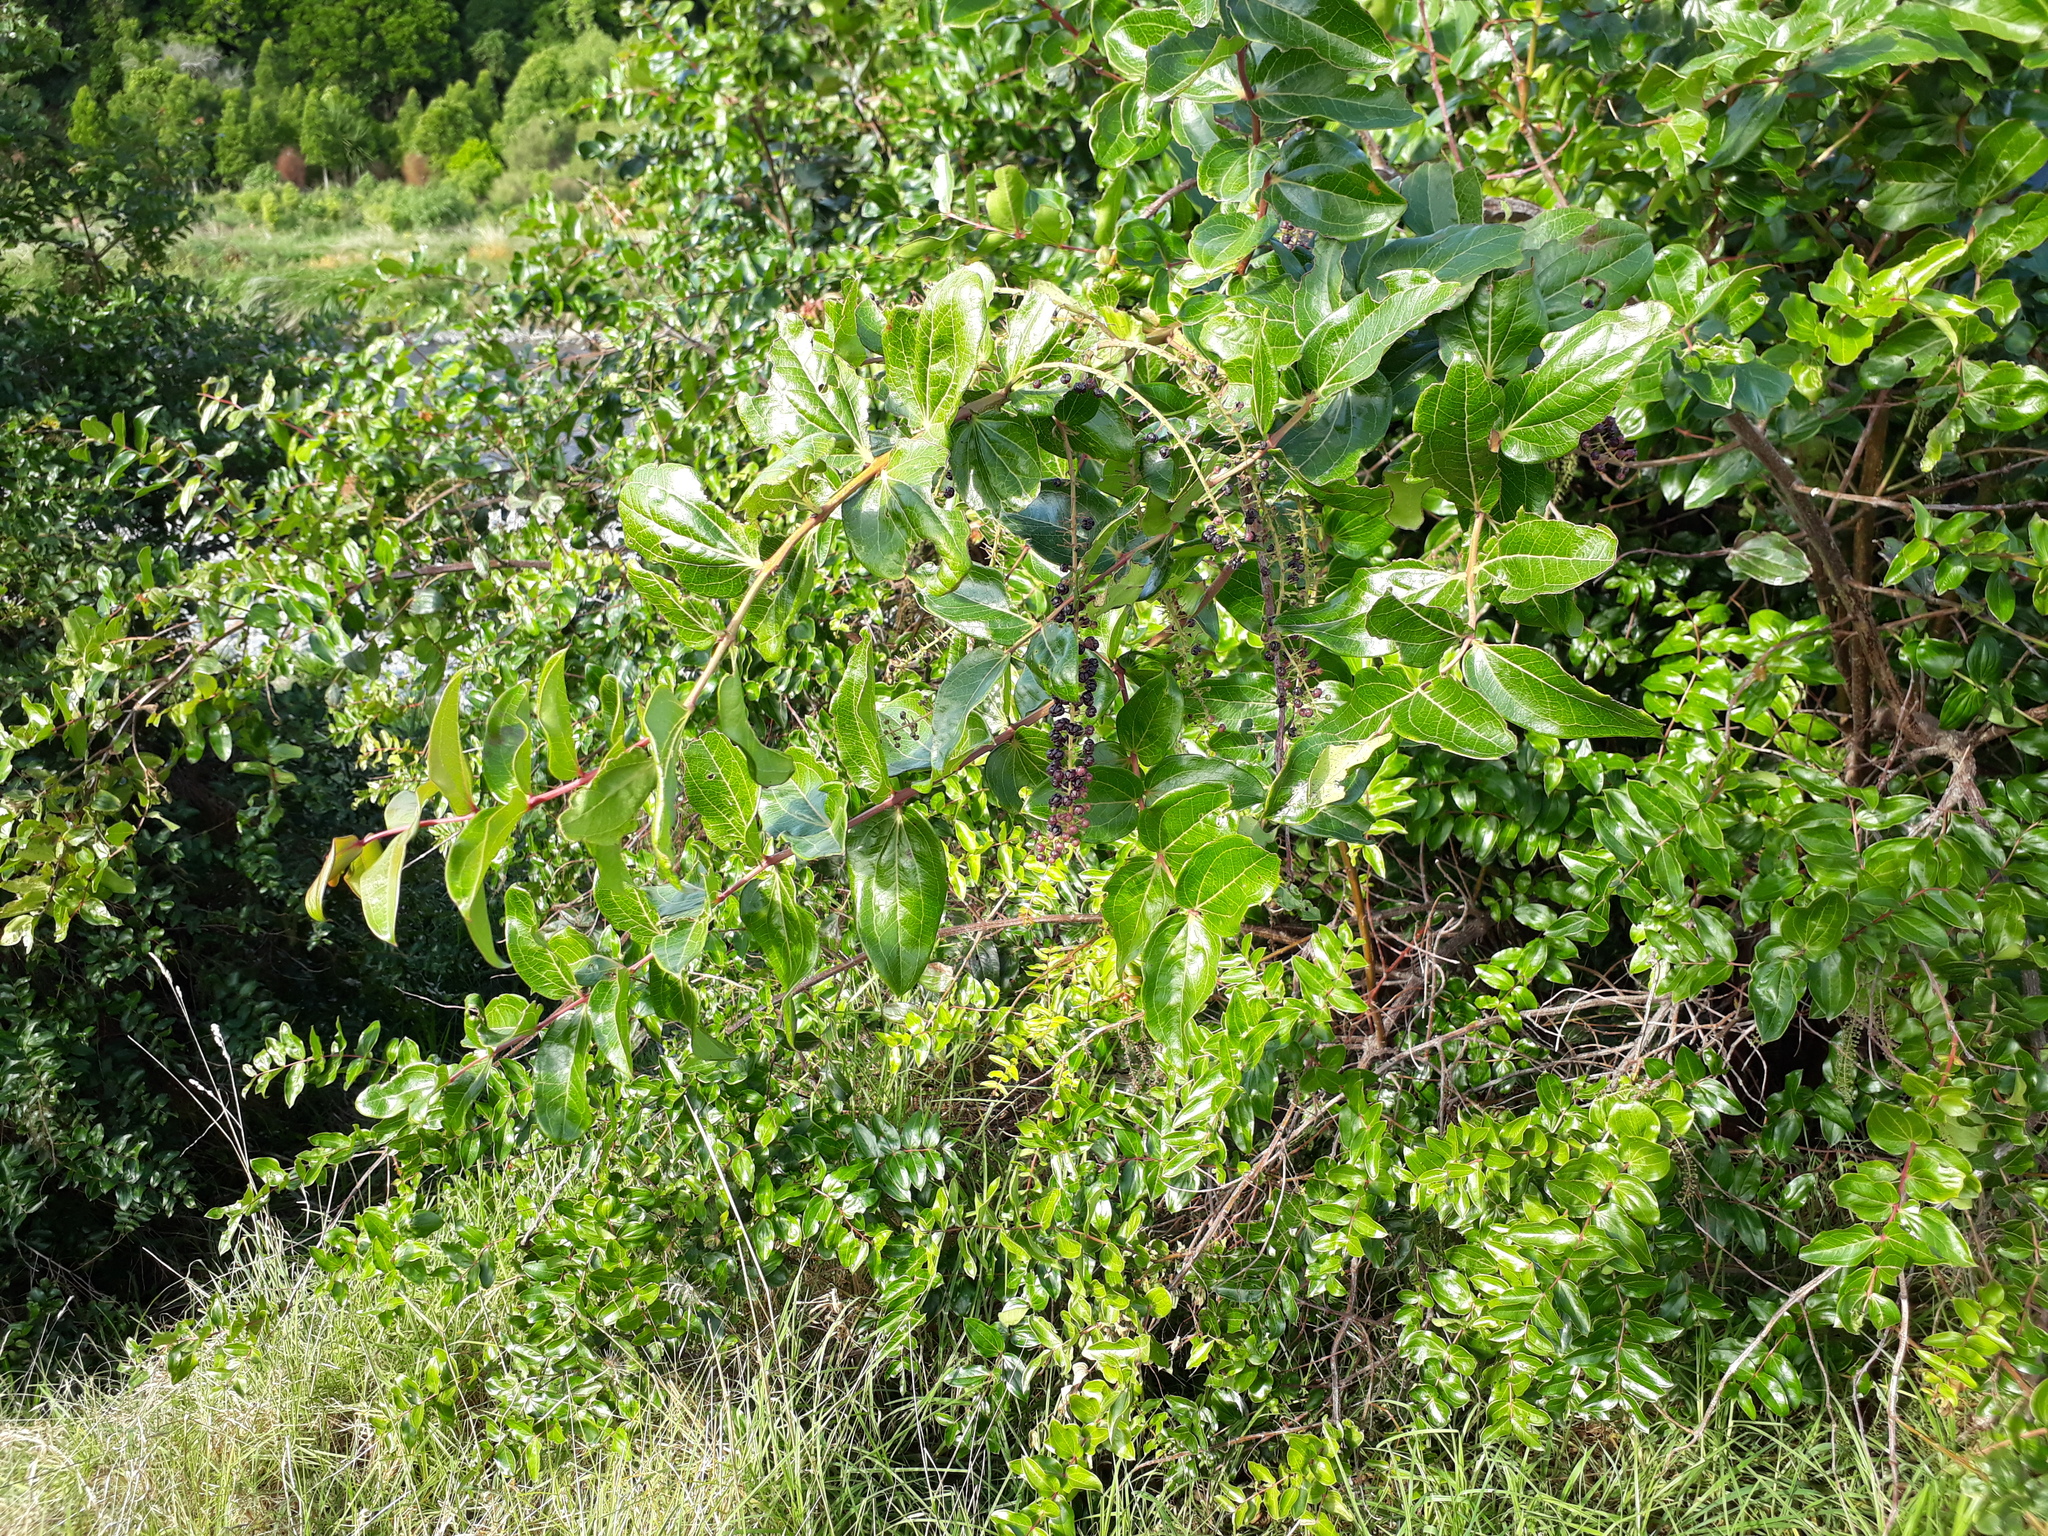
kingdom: Plantae
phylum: Tracheophyta
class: Magnoliopsida
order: Cucurbitales
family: Coriariaceae
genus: Coriaria
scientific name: Coriaria arborea
